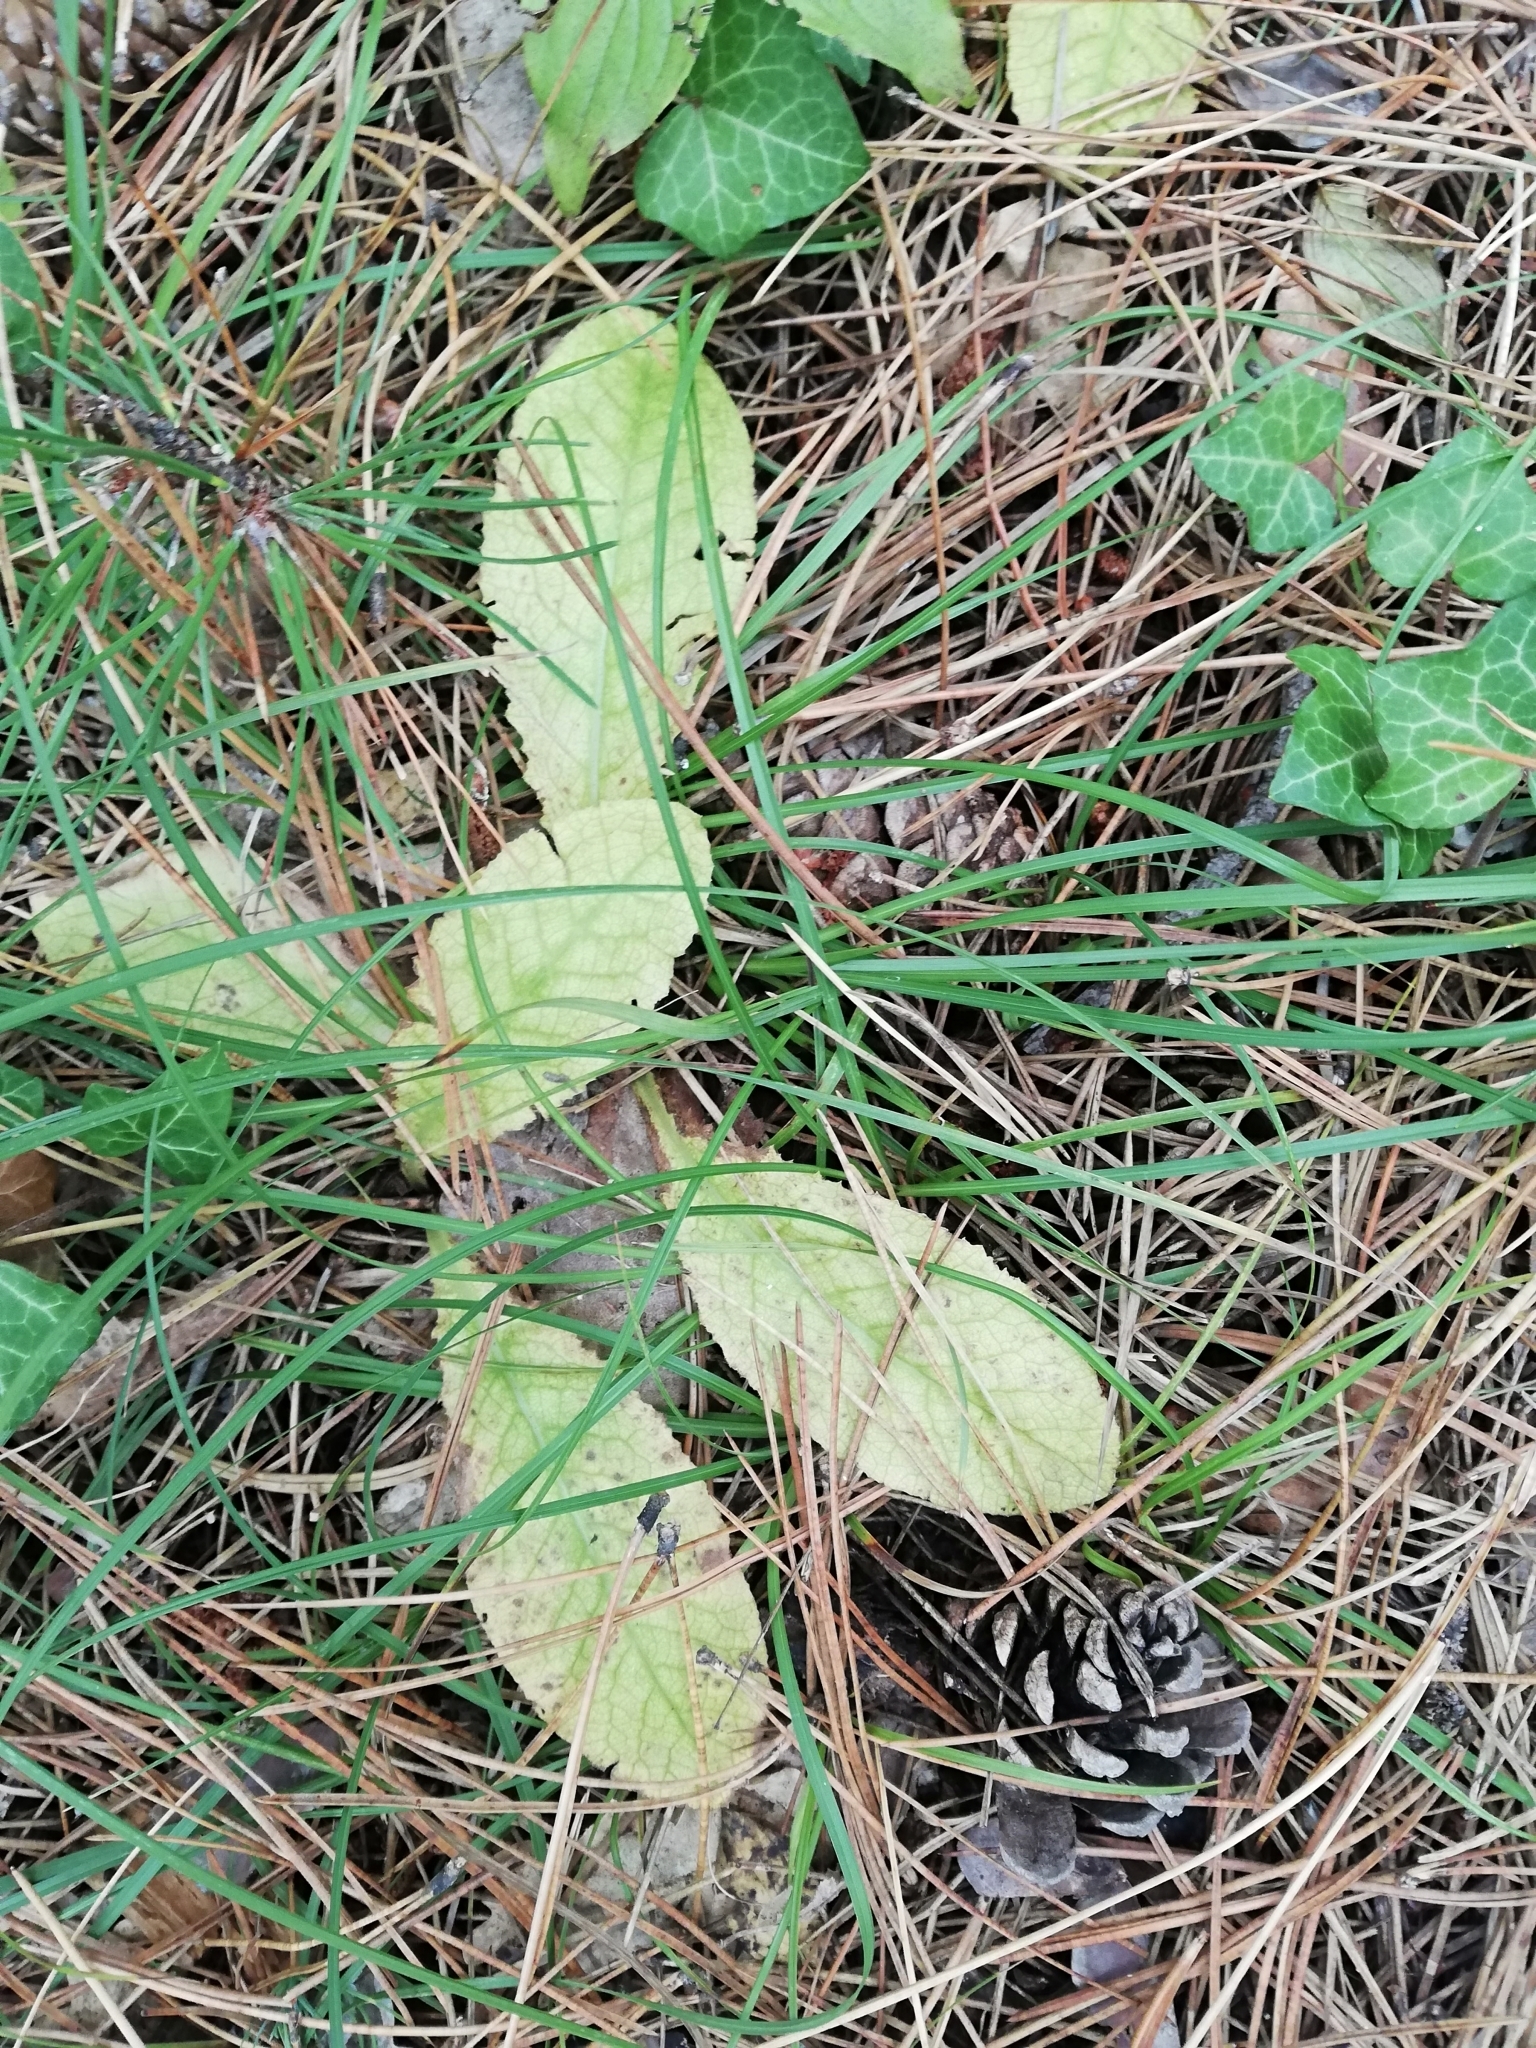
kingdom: Plantae
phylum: Tracheophyta
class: Magnoliopsida
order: Ericales
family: Primulaceae
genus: Primula
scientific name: Primula vulgaris
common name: Primrose
